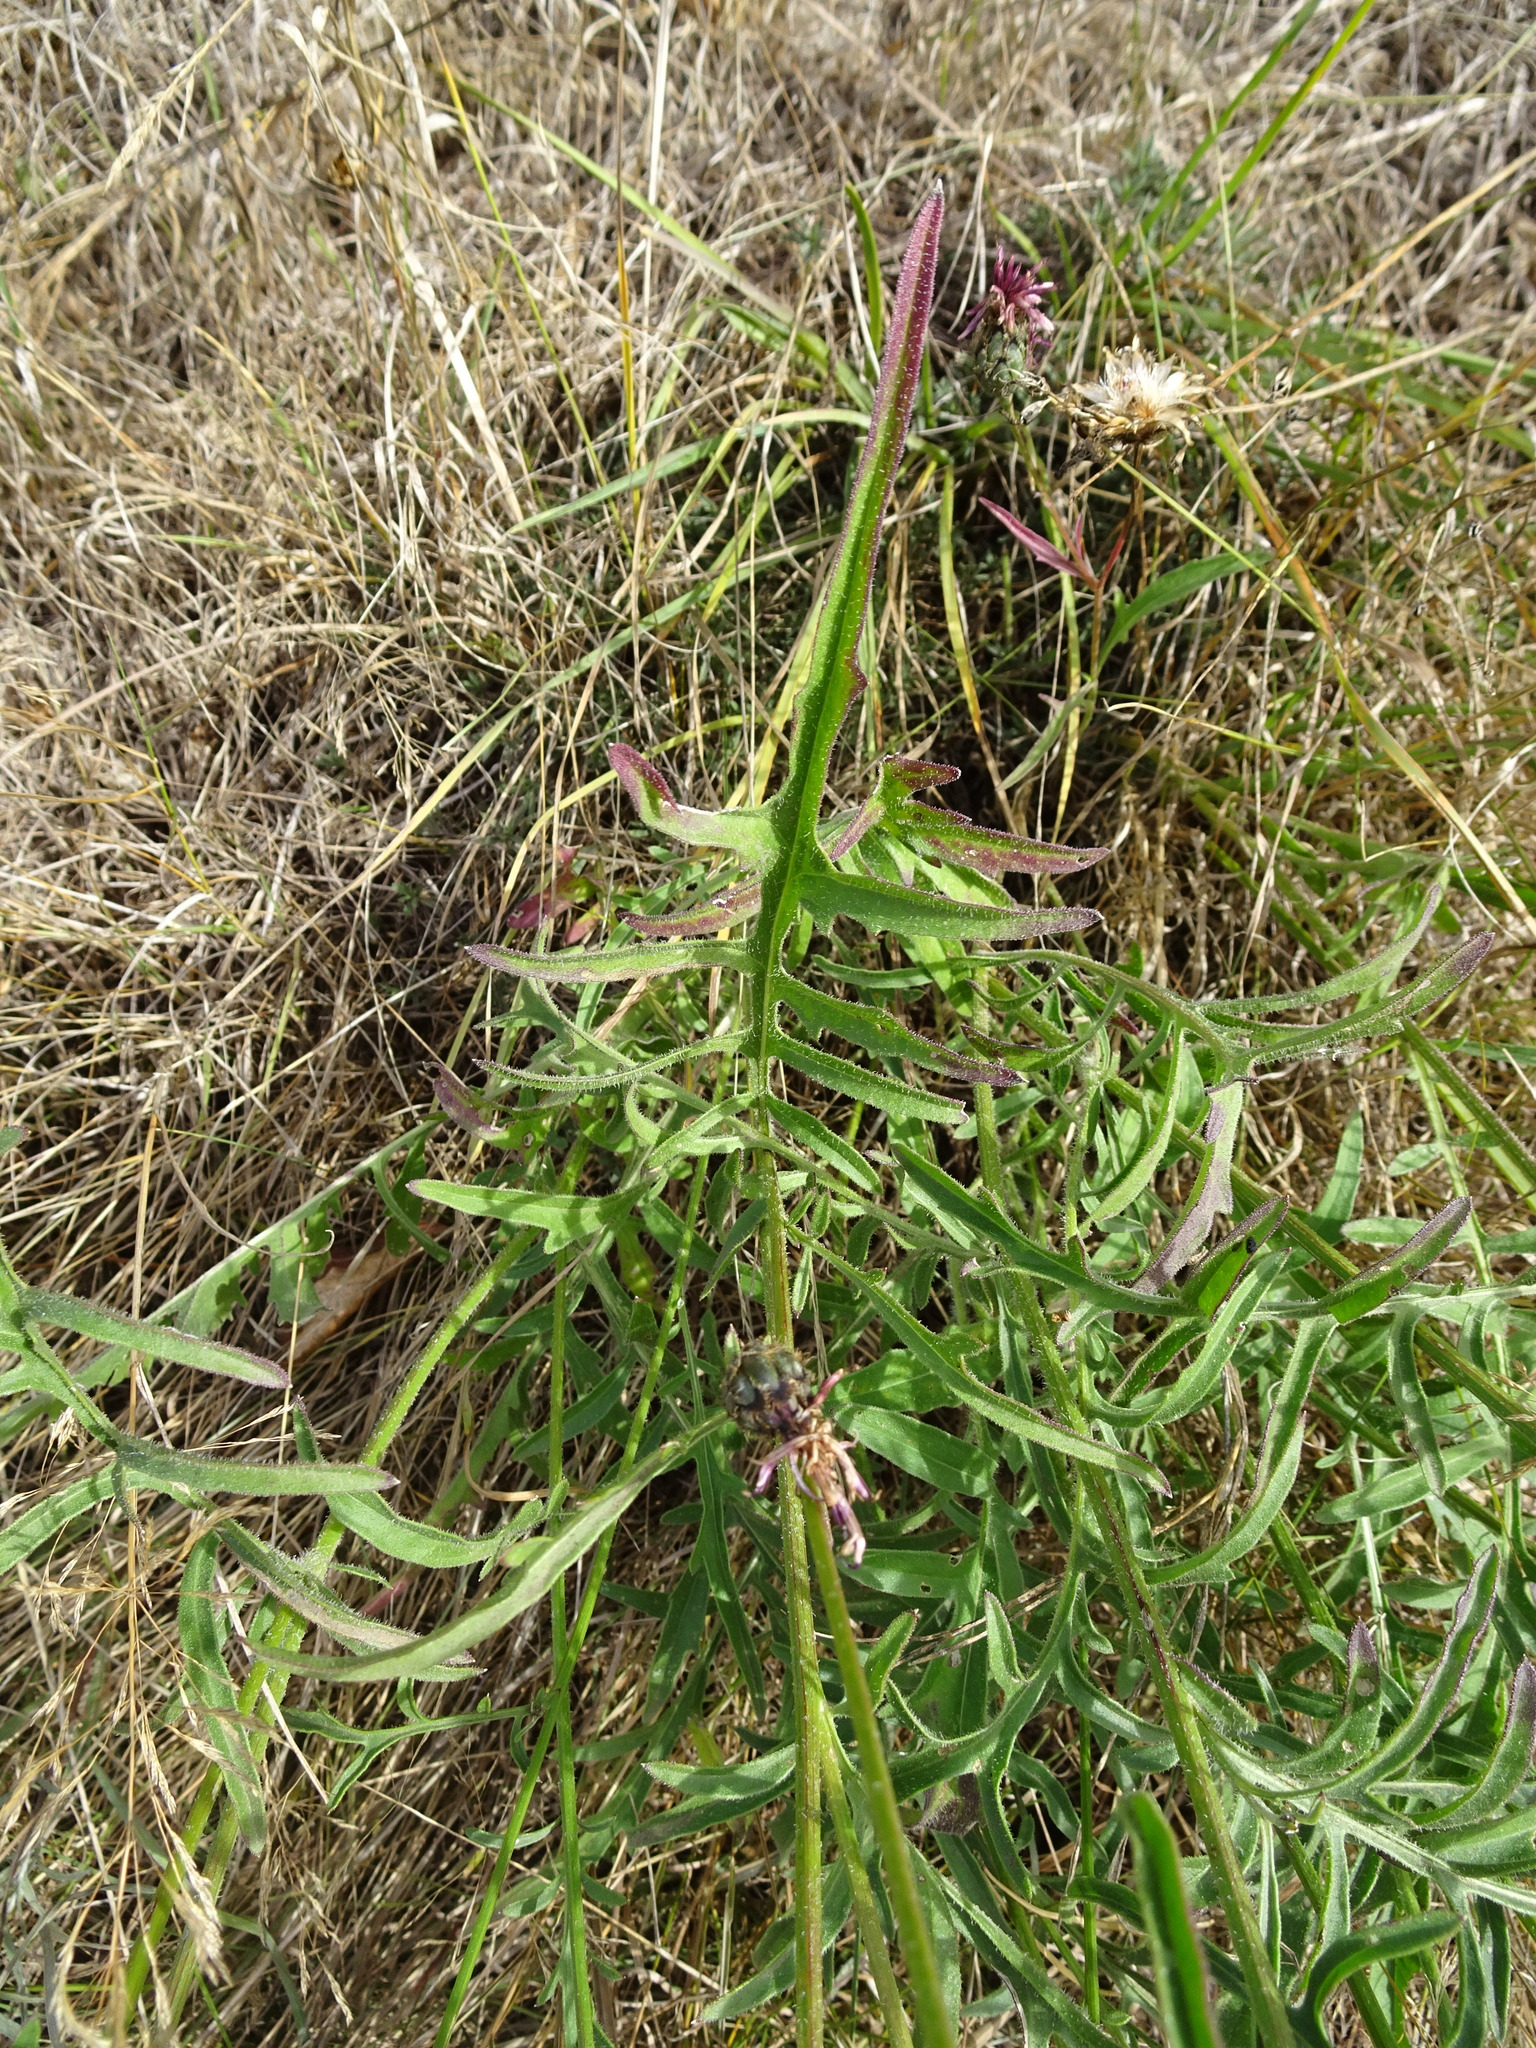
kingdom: Plantae
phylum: Tracheophyta
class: Magnoliopsida
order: Asterales
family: Asteraceae
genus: Centaurea
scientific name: Centaurea scabiosa
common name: Greater knapweed
